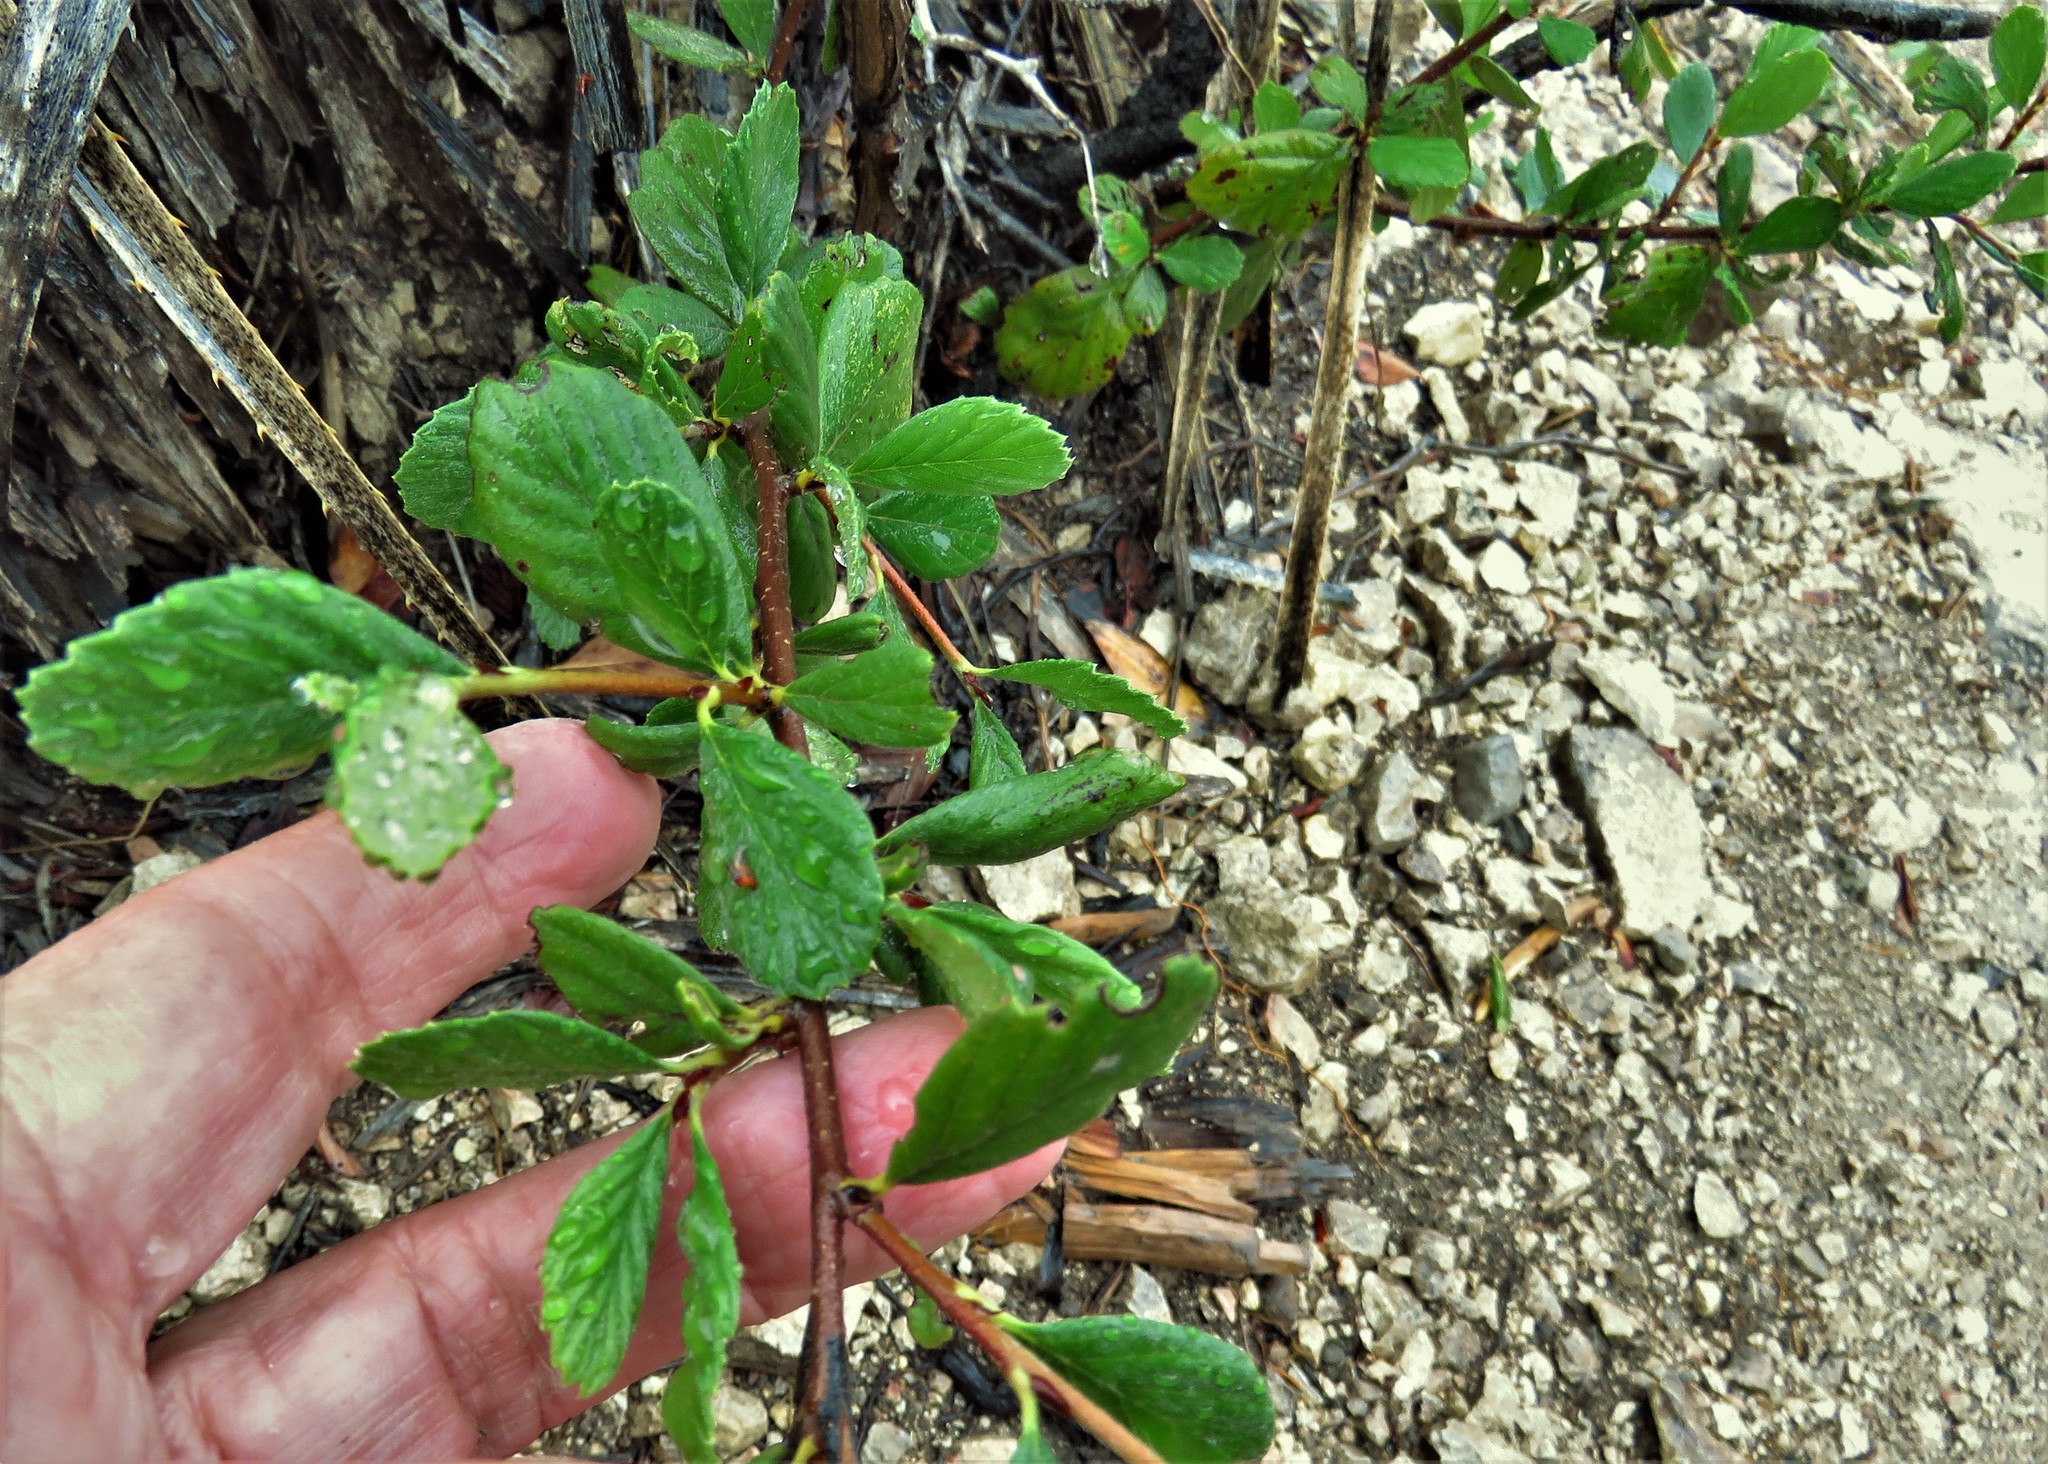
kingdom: Plantae
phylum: Tracheophyta
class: Magnoliopsida
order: Rosales
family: Rosaceae
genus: Cercocarpus
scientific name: Cercocarpus montanus
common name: Alder-leaf cercocarpus
